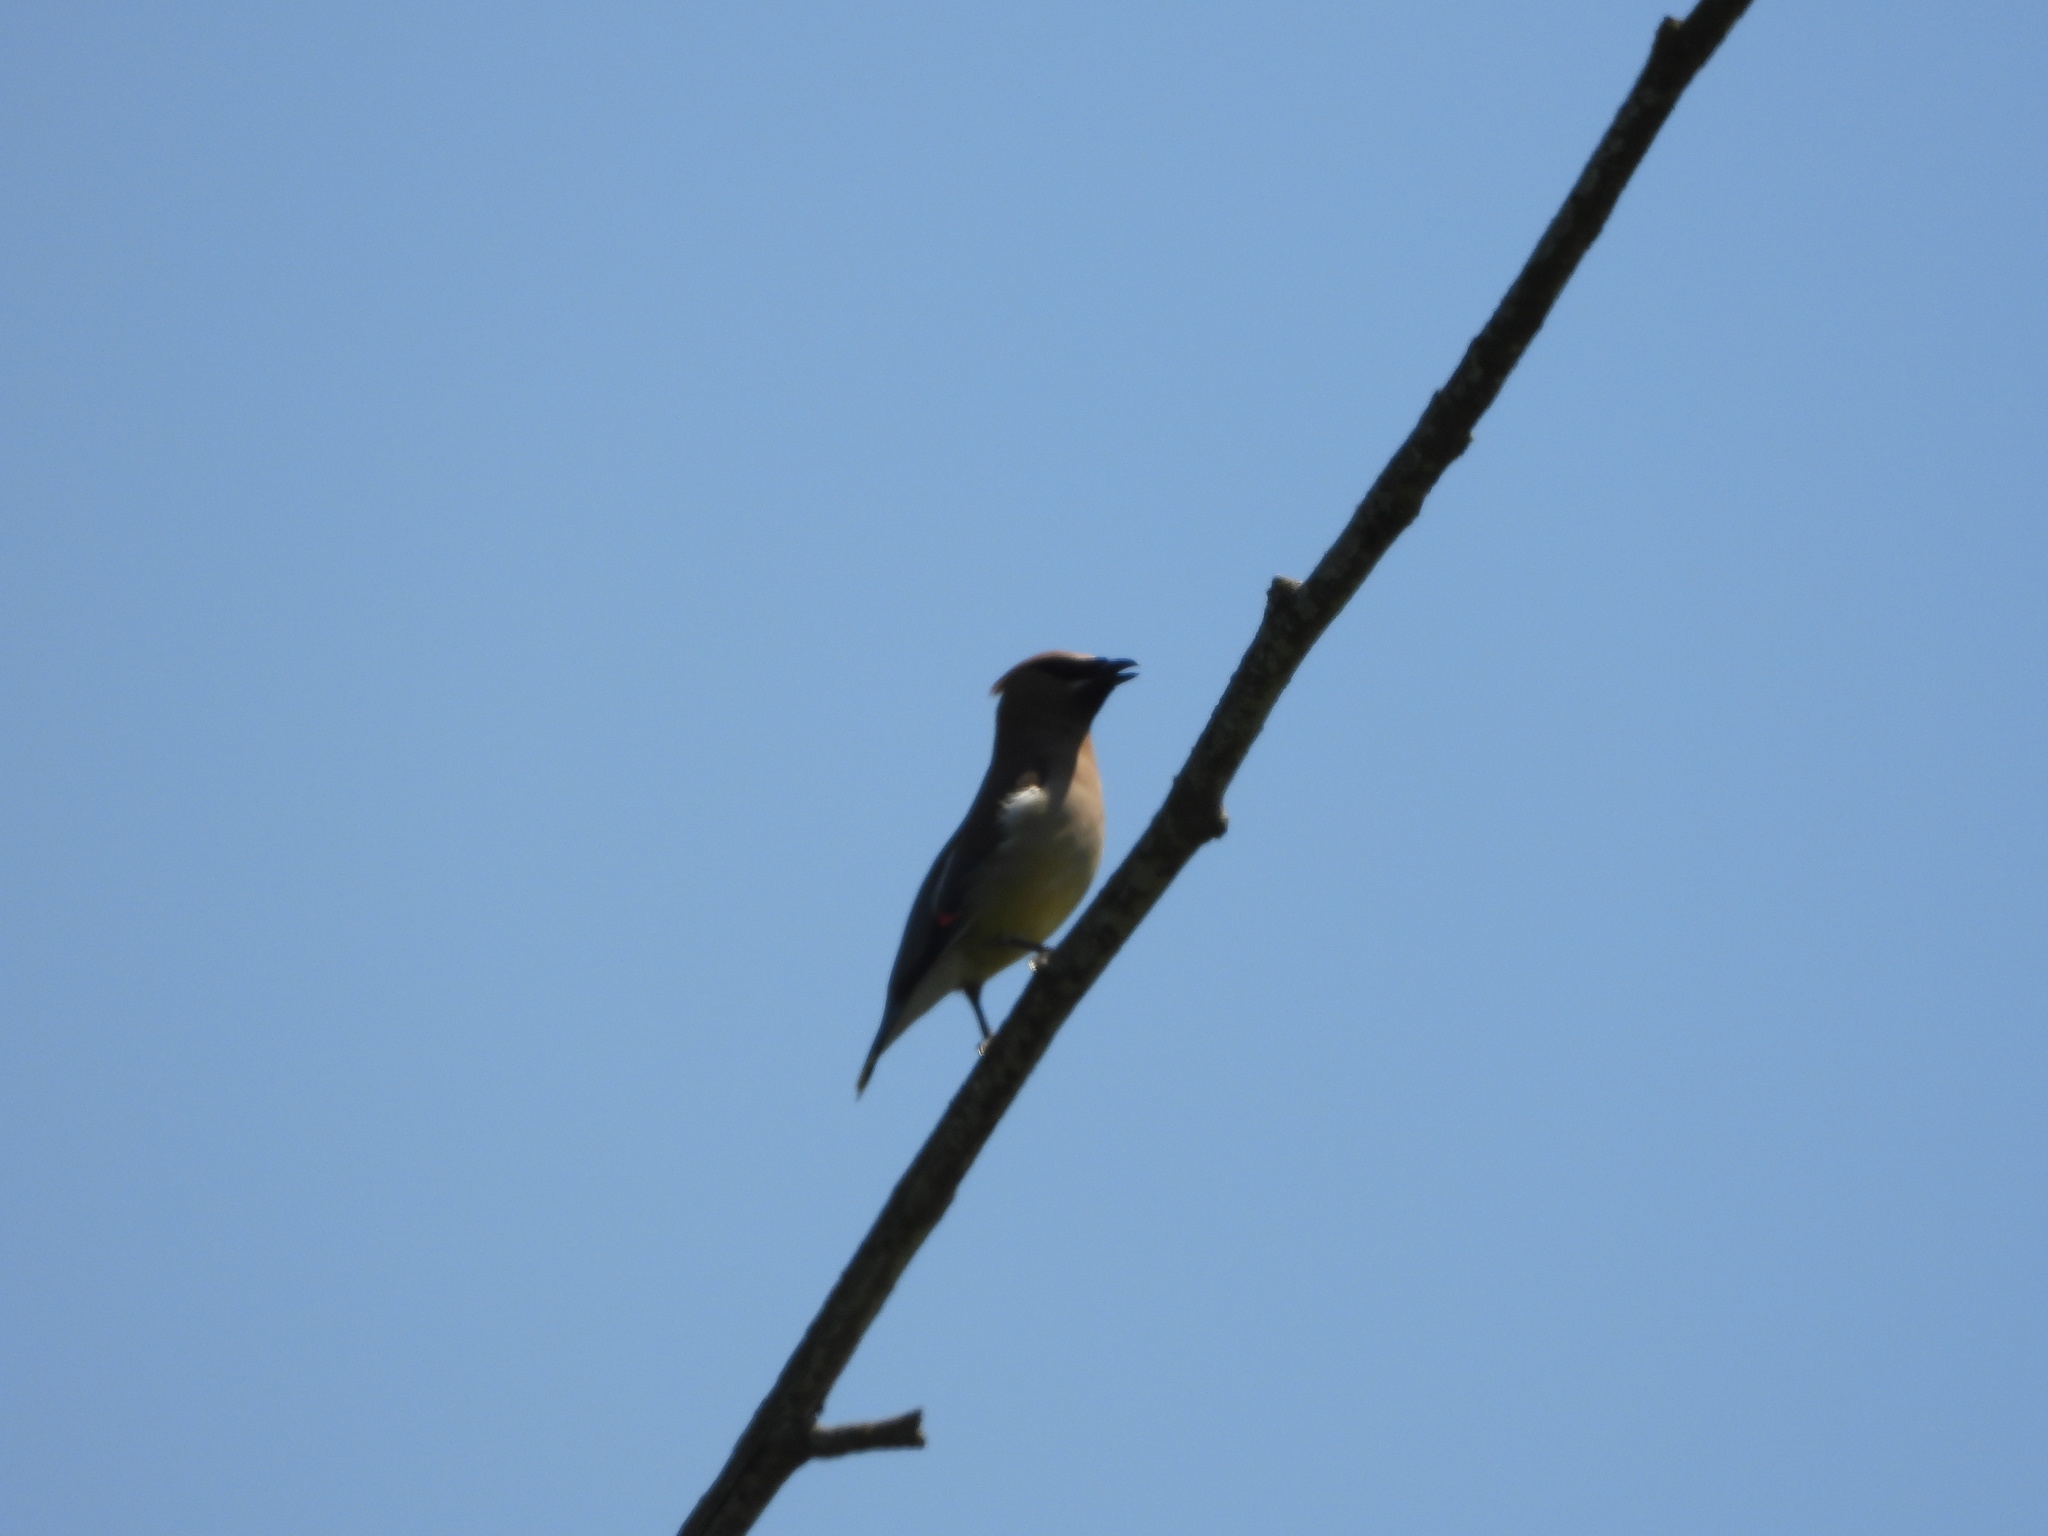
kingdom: Animalia
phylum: Chordata
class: Aves
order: Passeriformes
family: Bombycillidae
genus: Bombycilla
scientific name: Bombycilla cedrorum
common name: Cedar waxwing
